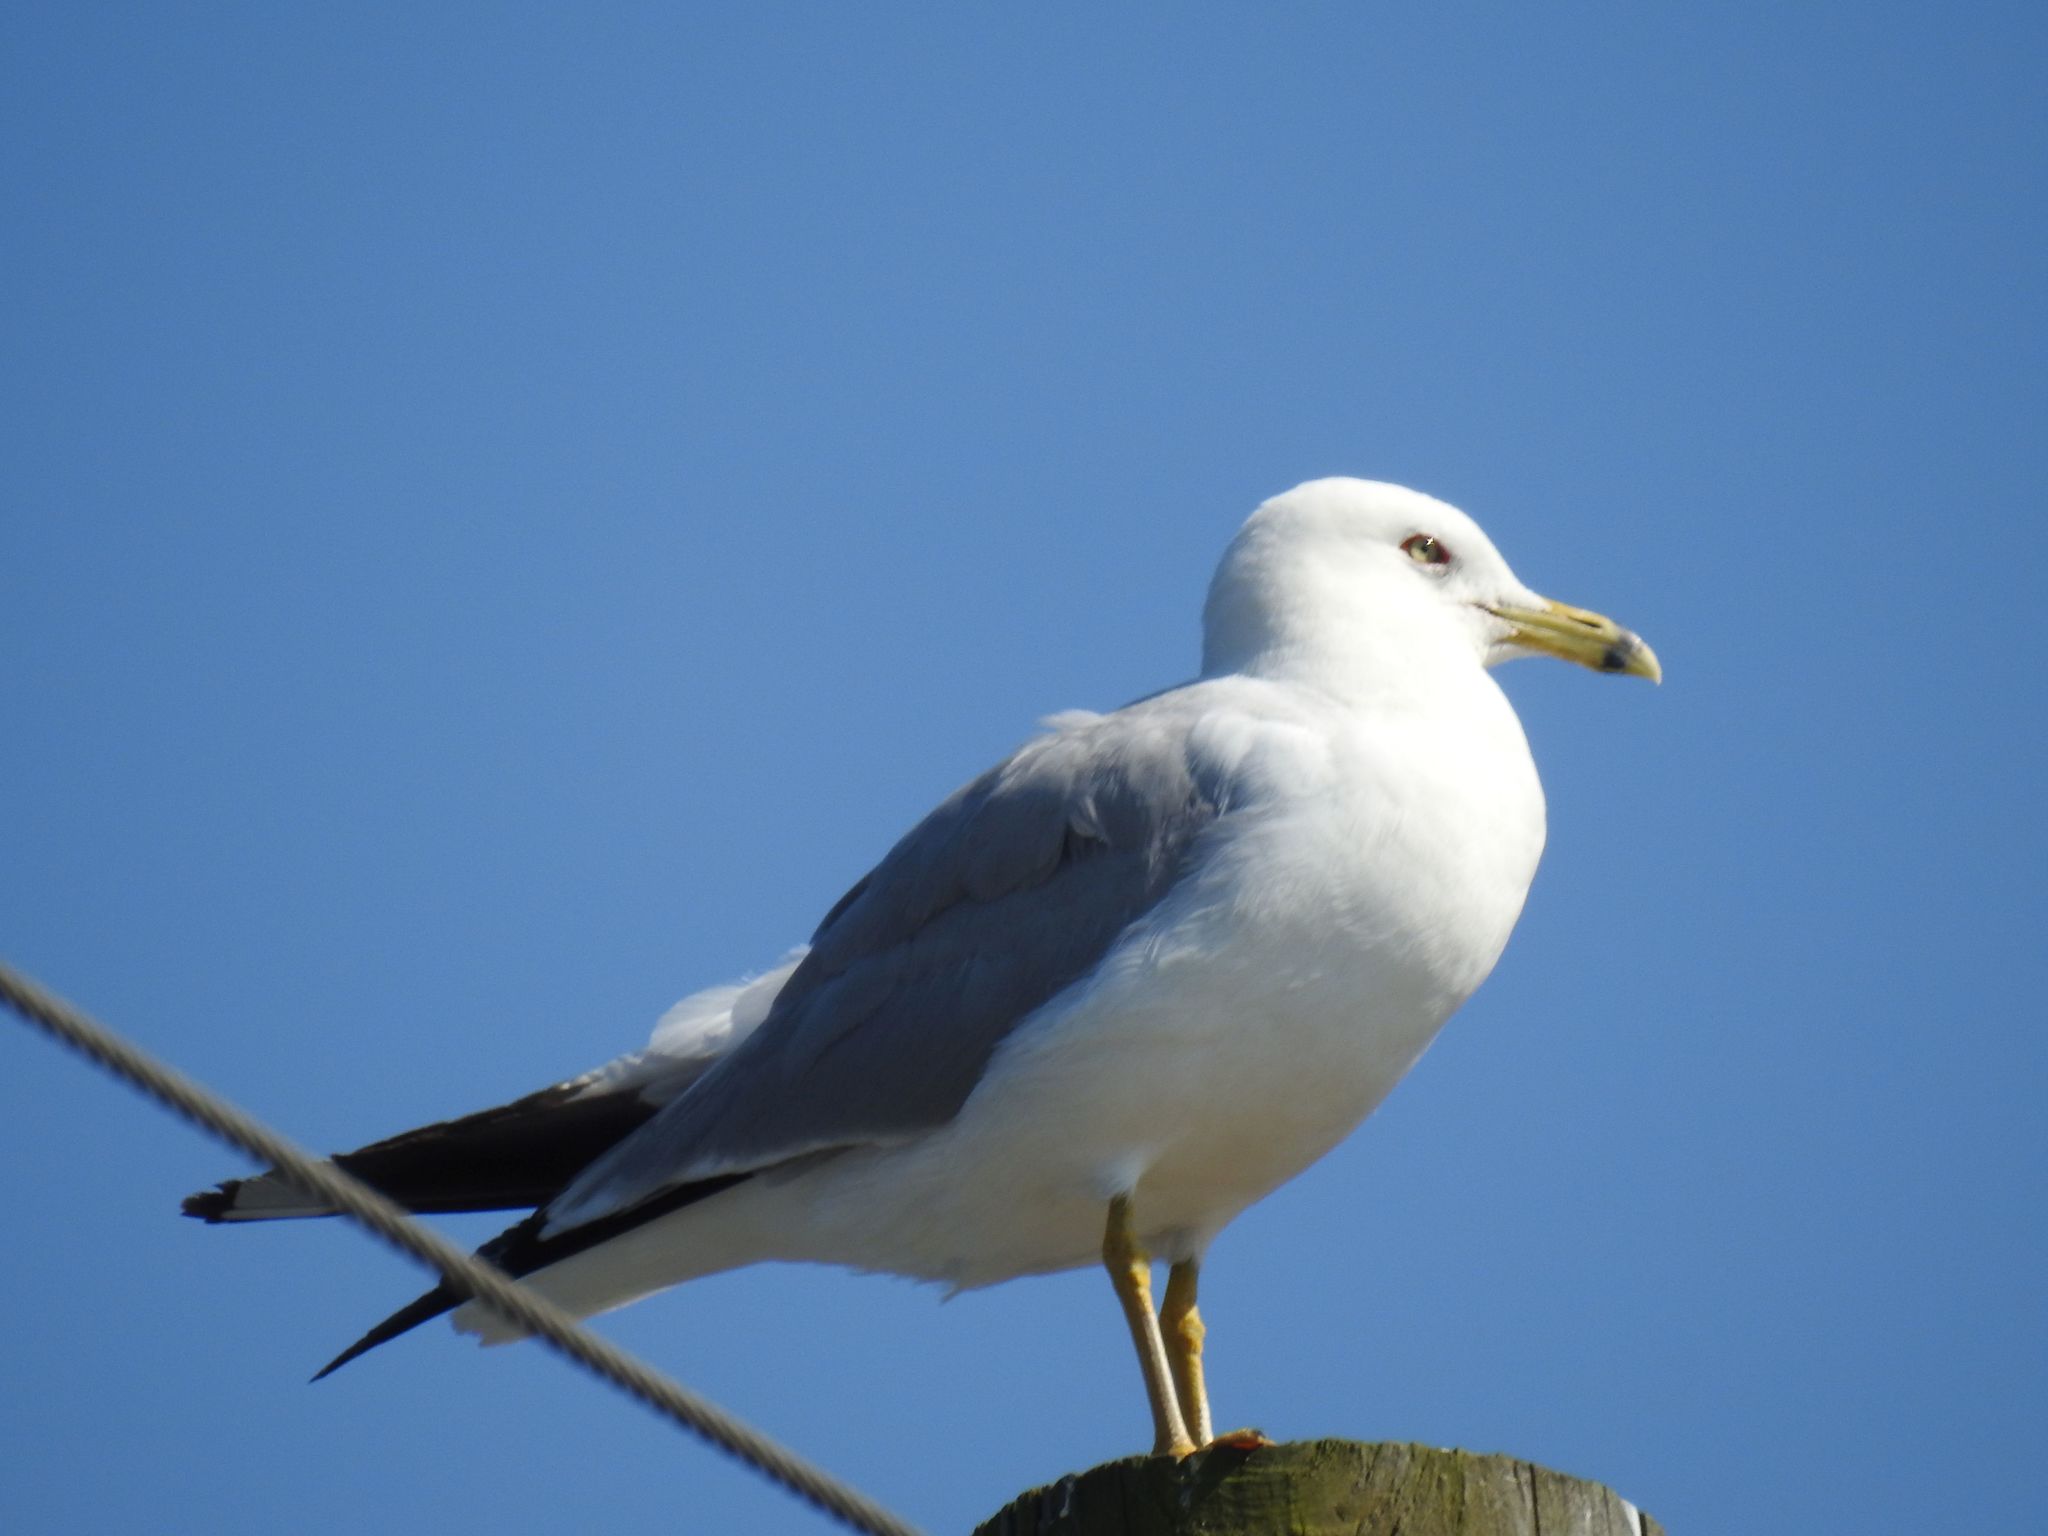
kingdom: Animalia
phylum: Chordata
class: Aves
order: Charadriiformes
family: Laridae
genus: Larus
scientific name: Larus delawarensis
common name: Ring-billed gull
